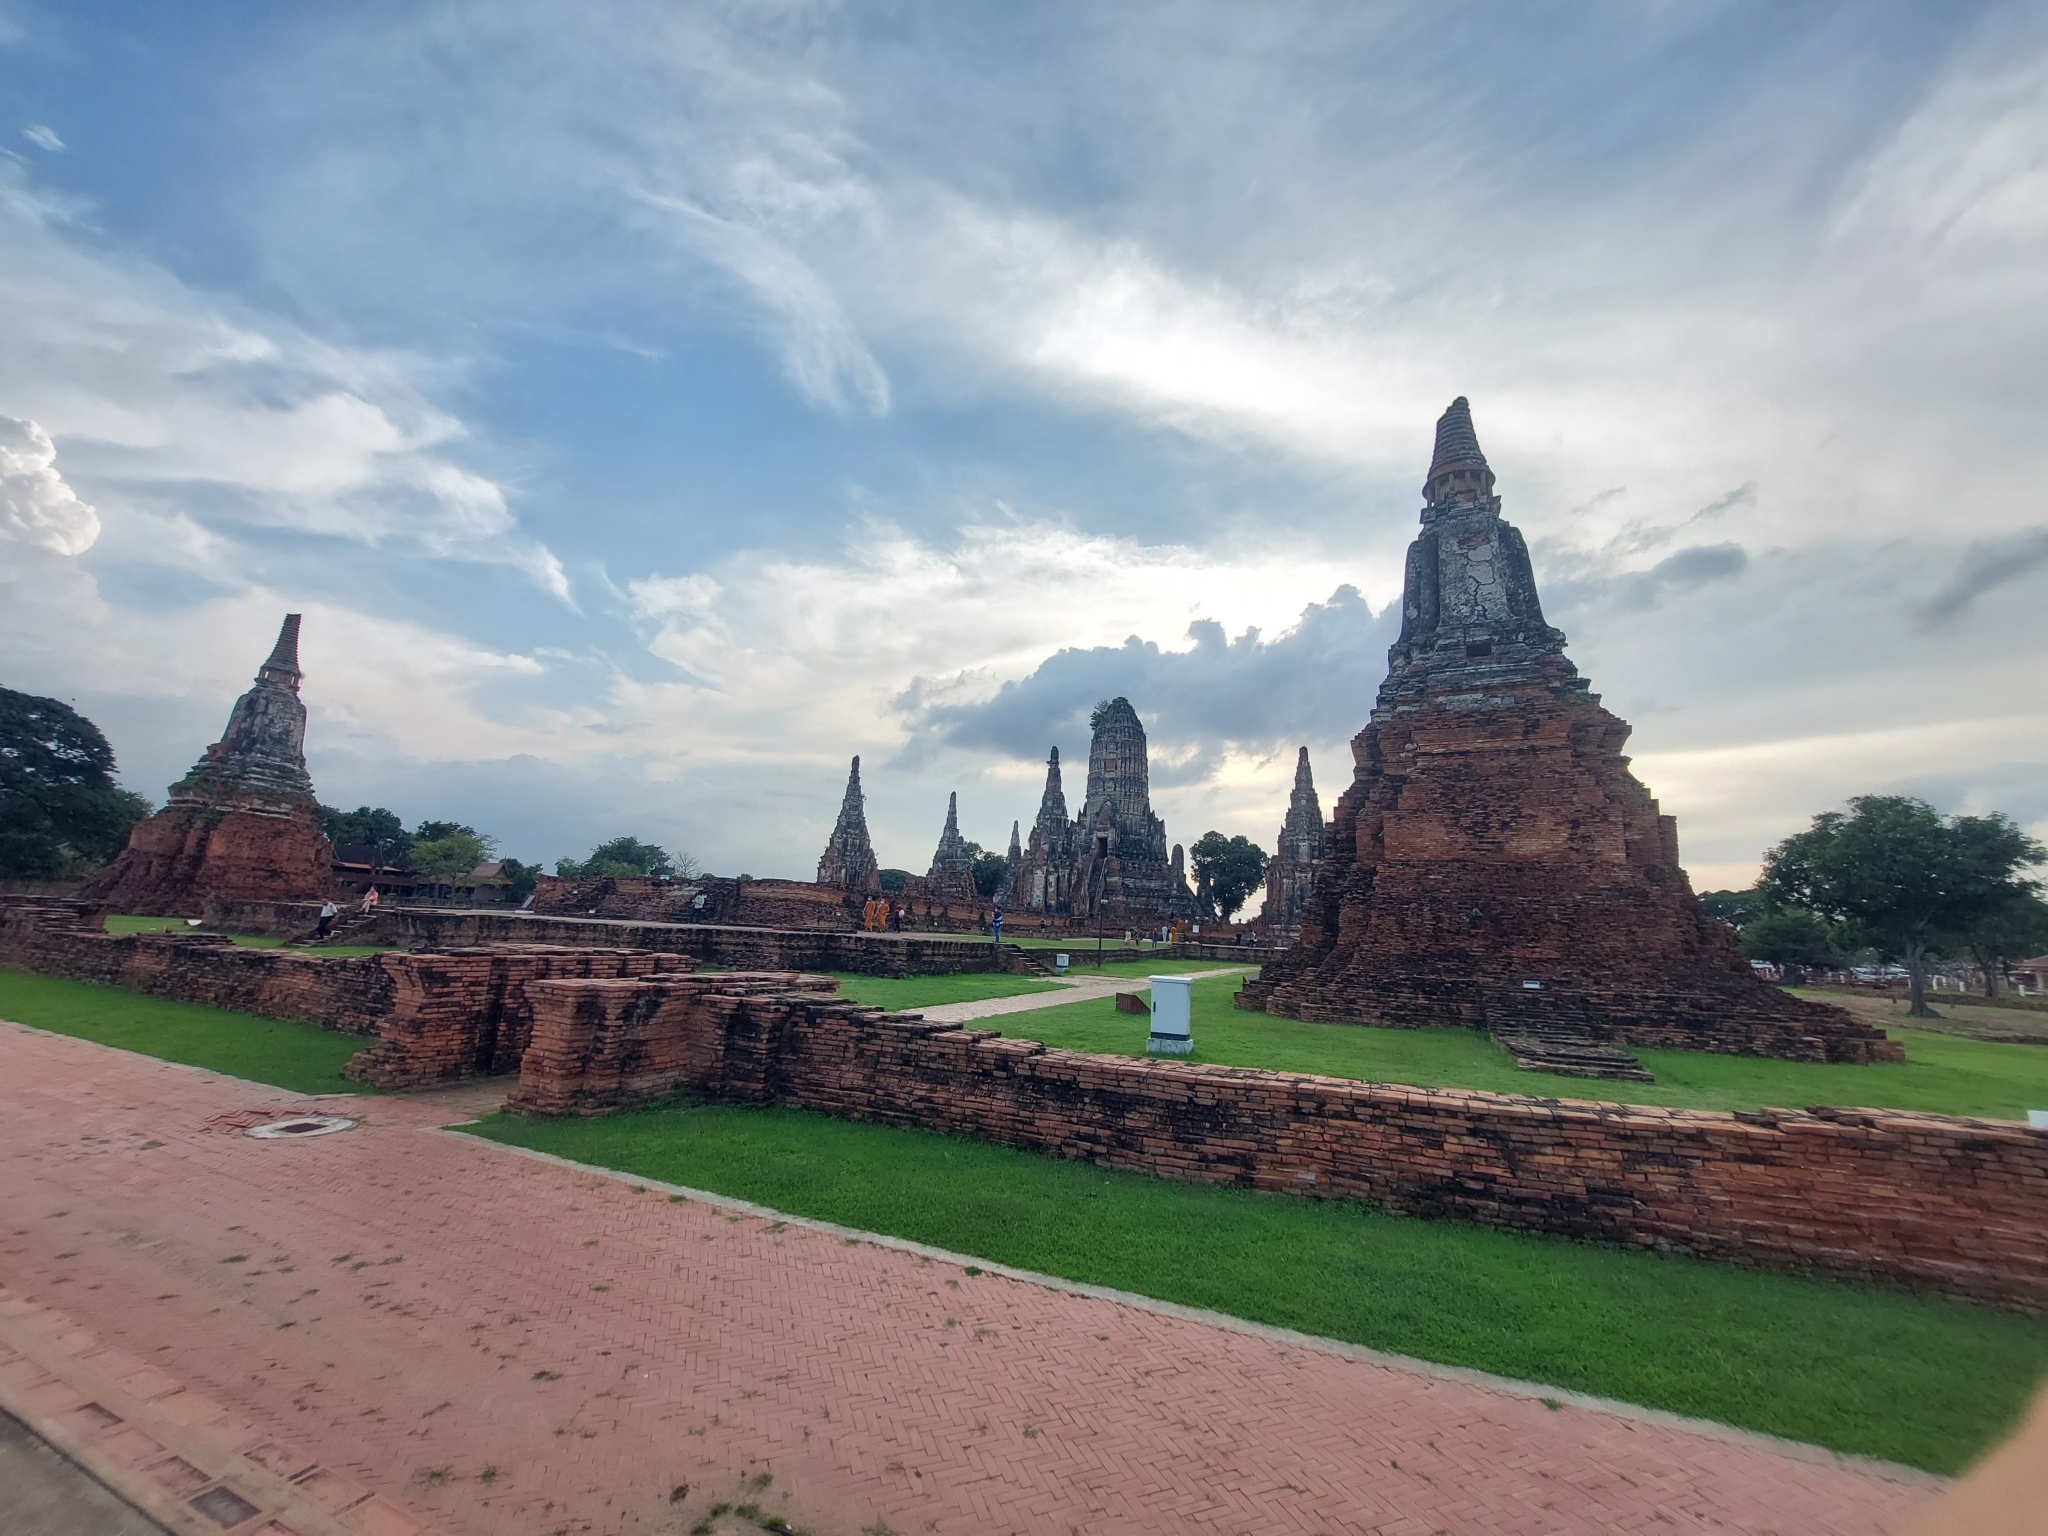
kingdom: Animalia
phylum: Chordata
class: Aves
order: Coraciiformes
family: Meropidae
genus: Merops
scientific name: Merops philippinus
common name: Blue-tailed bee-eater
